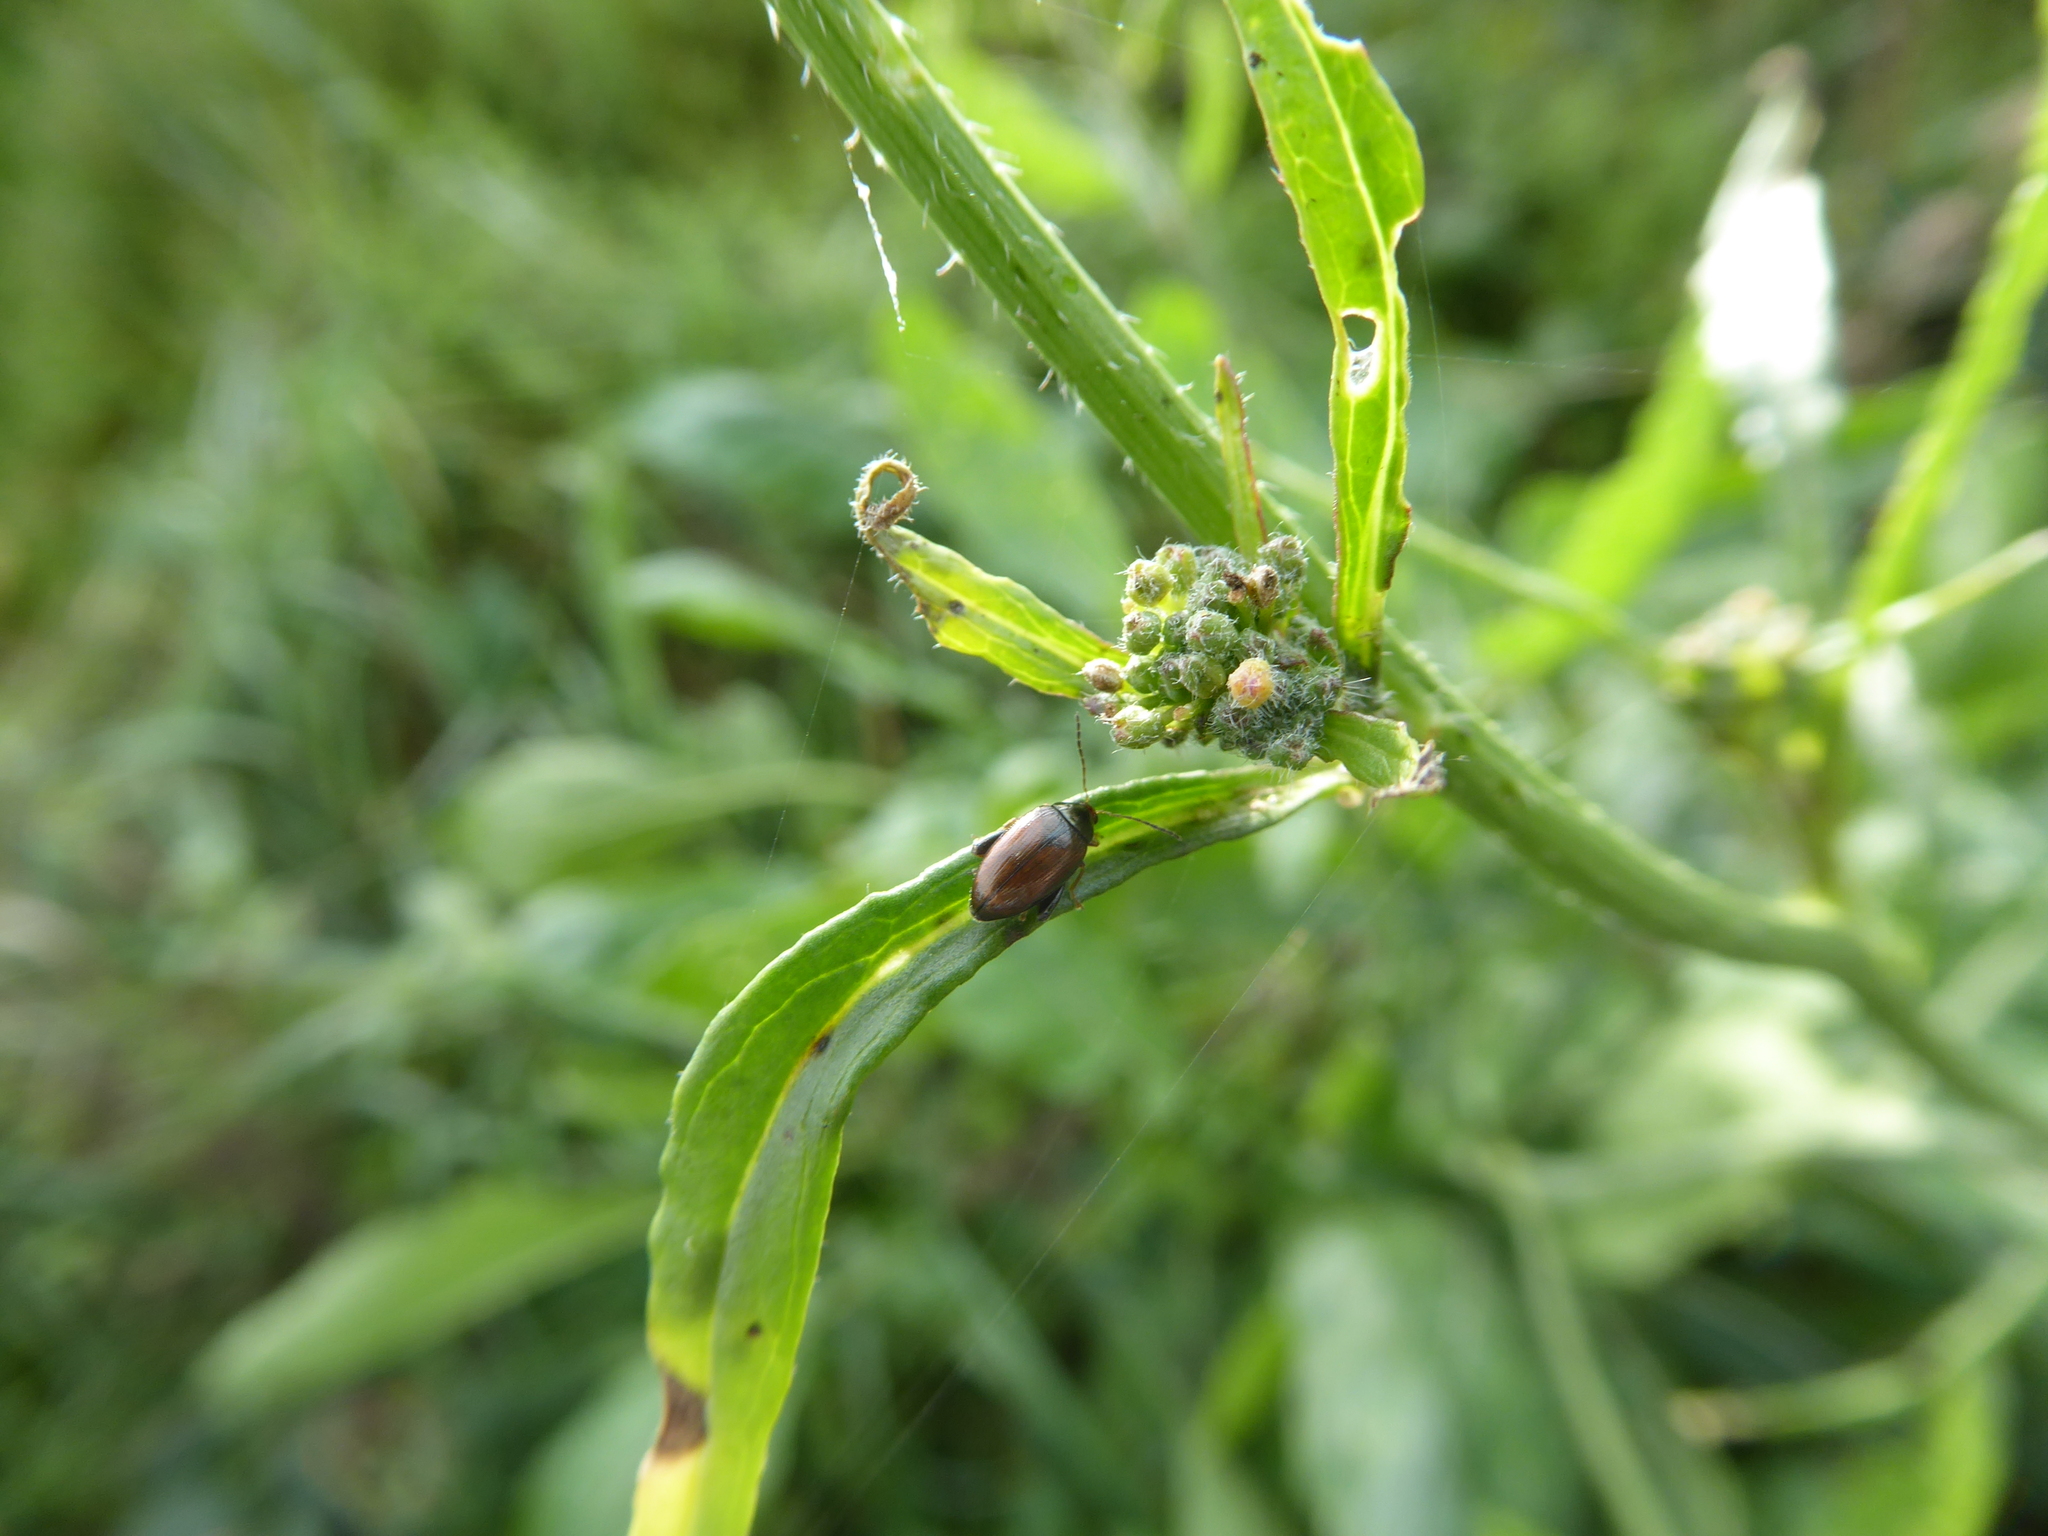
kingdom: Animalia
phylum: Arthropoda
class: Insecta
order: Coleoptera
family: Chrysomelidae
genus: Psylliodes
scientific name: Psylliodes chrysocephalus
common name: Cabbage-stem flea beetle
